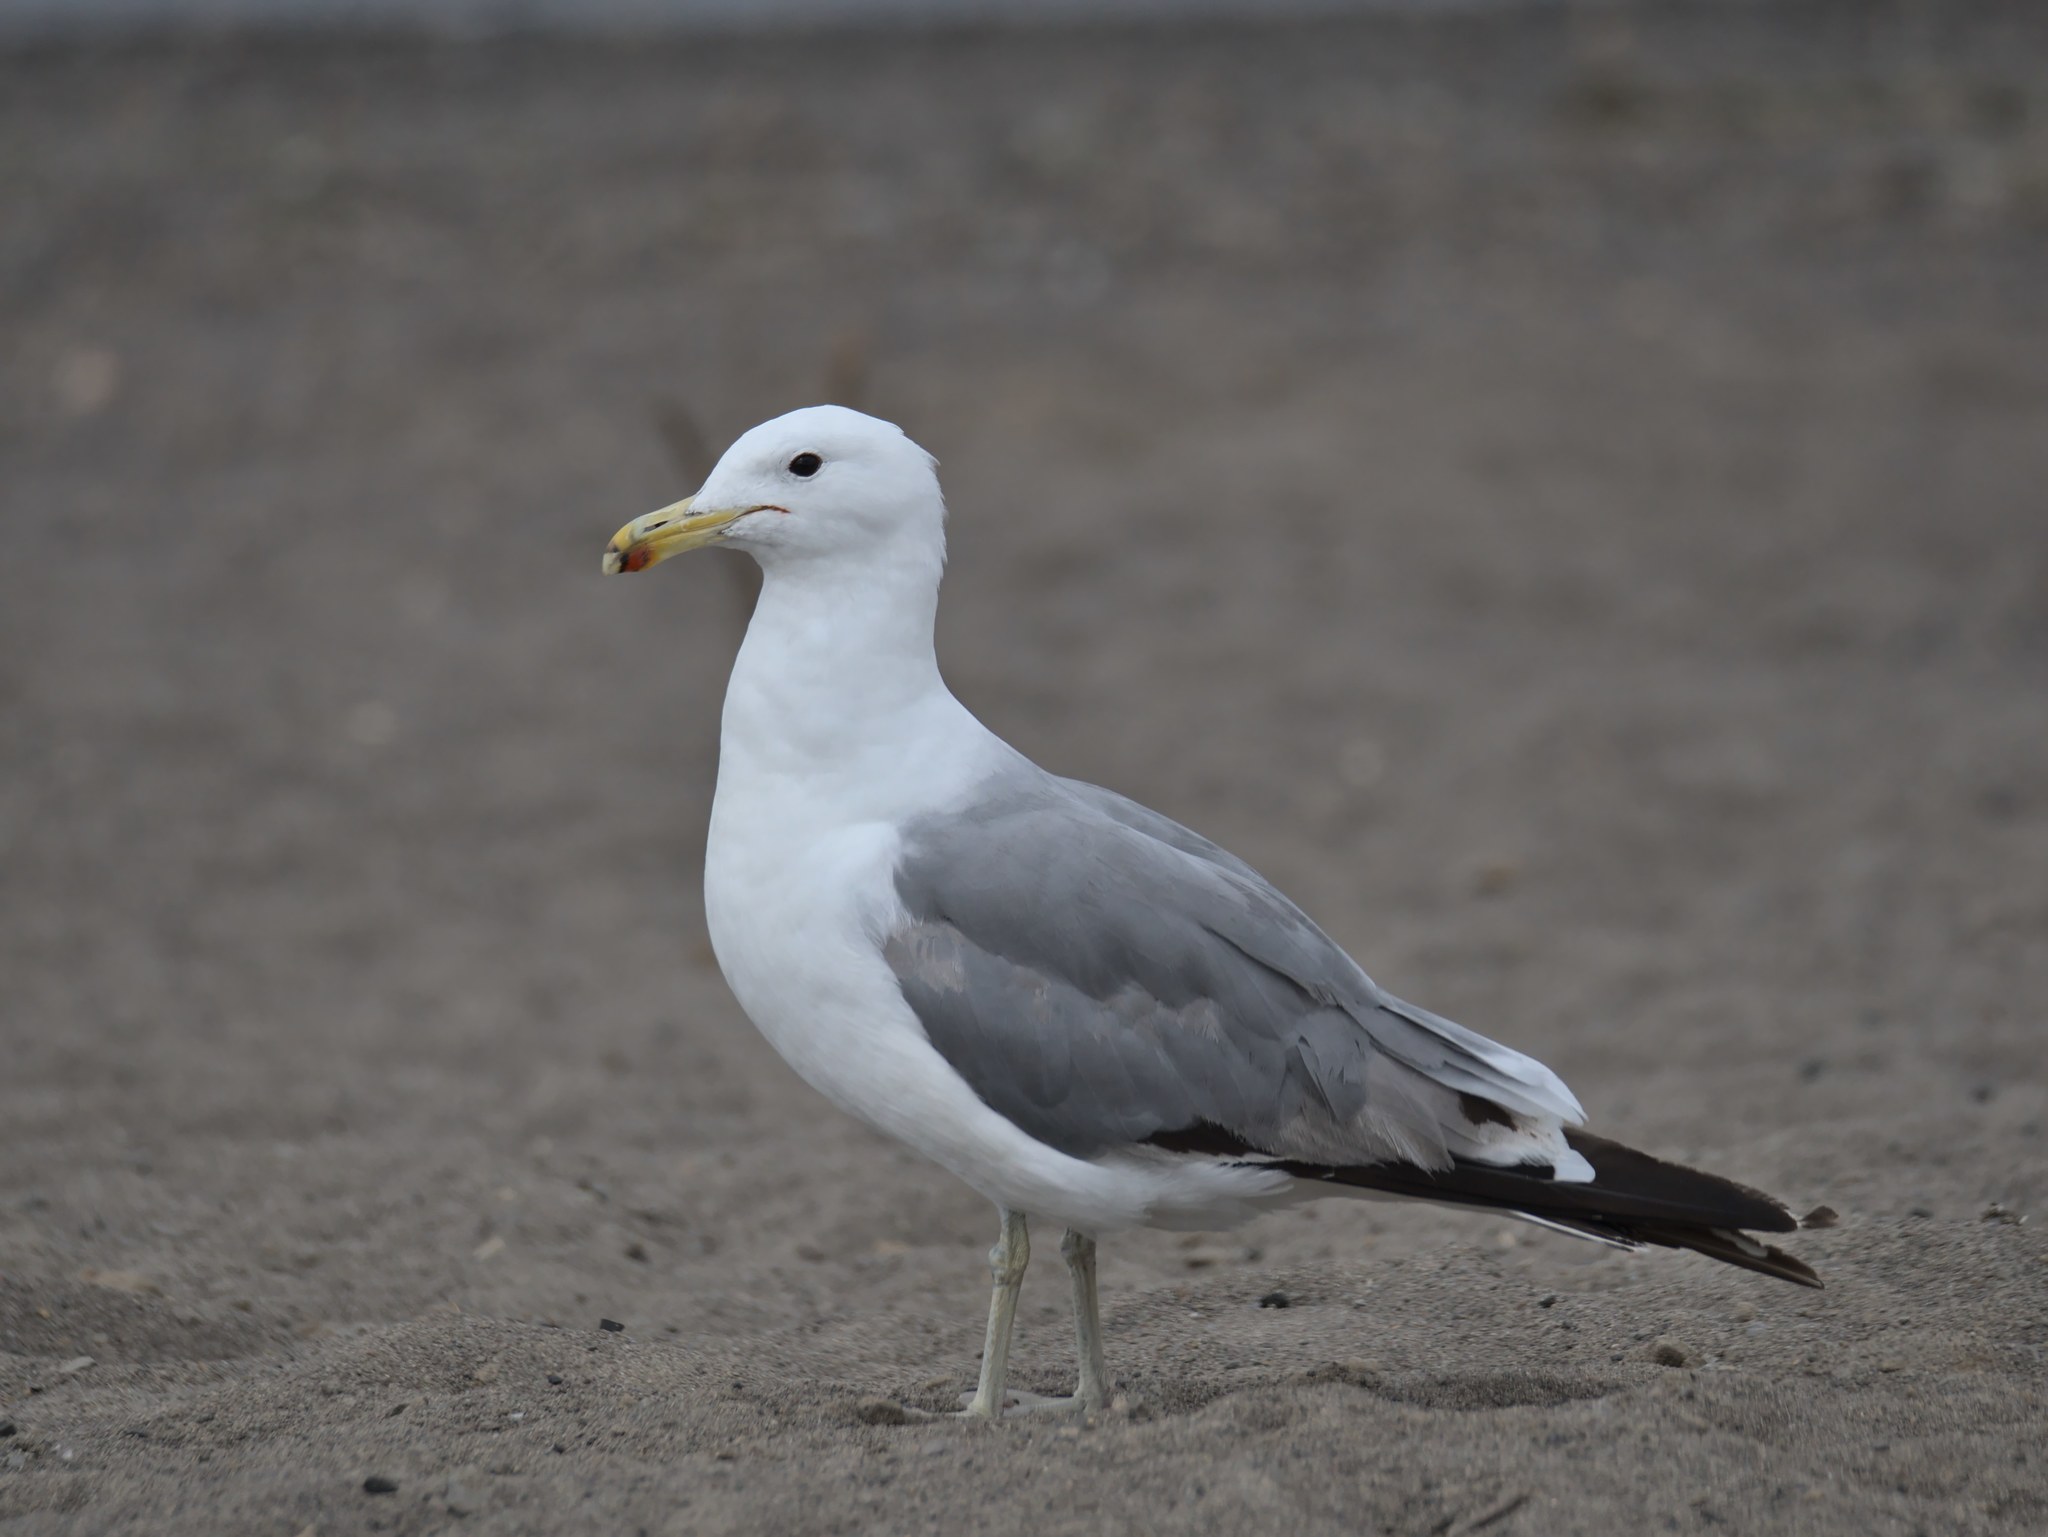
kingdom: Animalia
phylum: Chordata
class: Aves
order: Charadriiformes
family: Laridae
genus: Larus
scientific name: Larus californicus
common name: California gull
